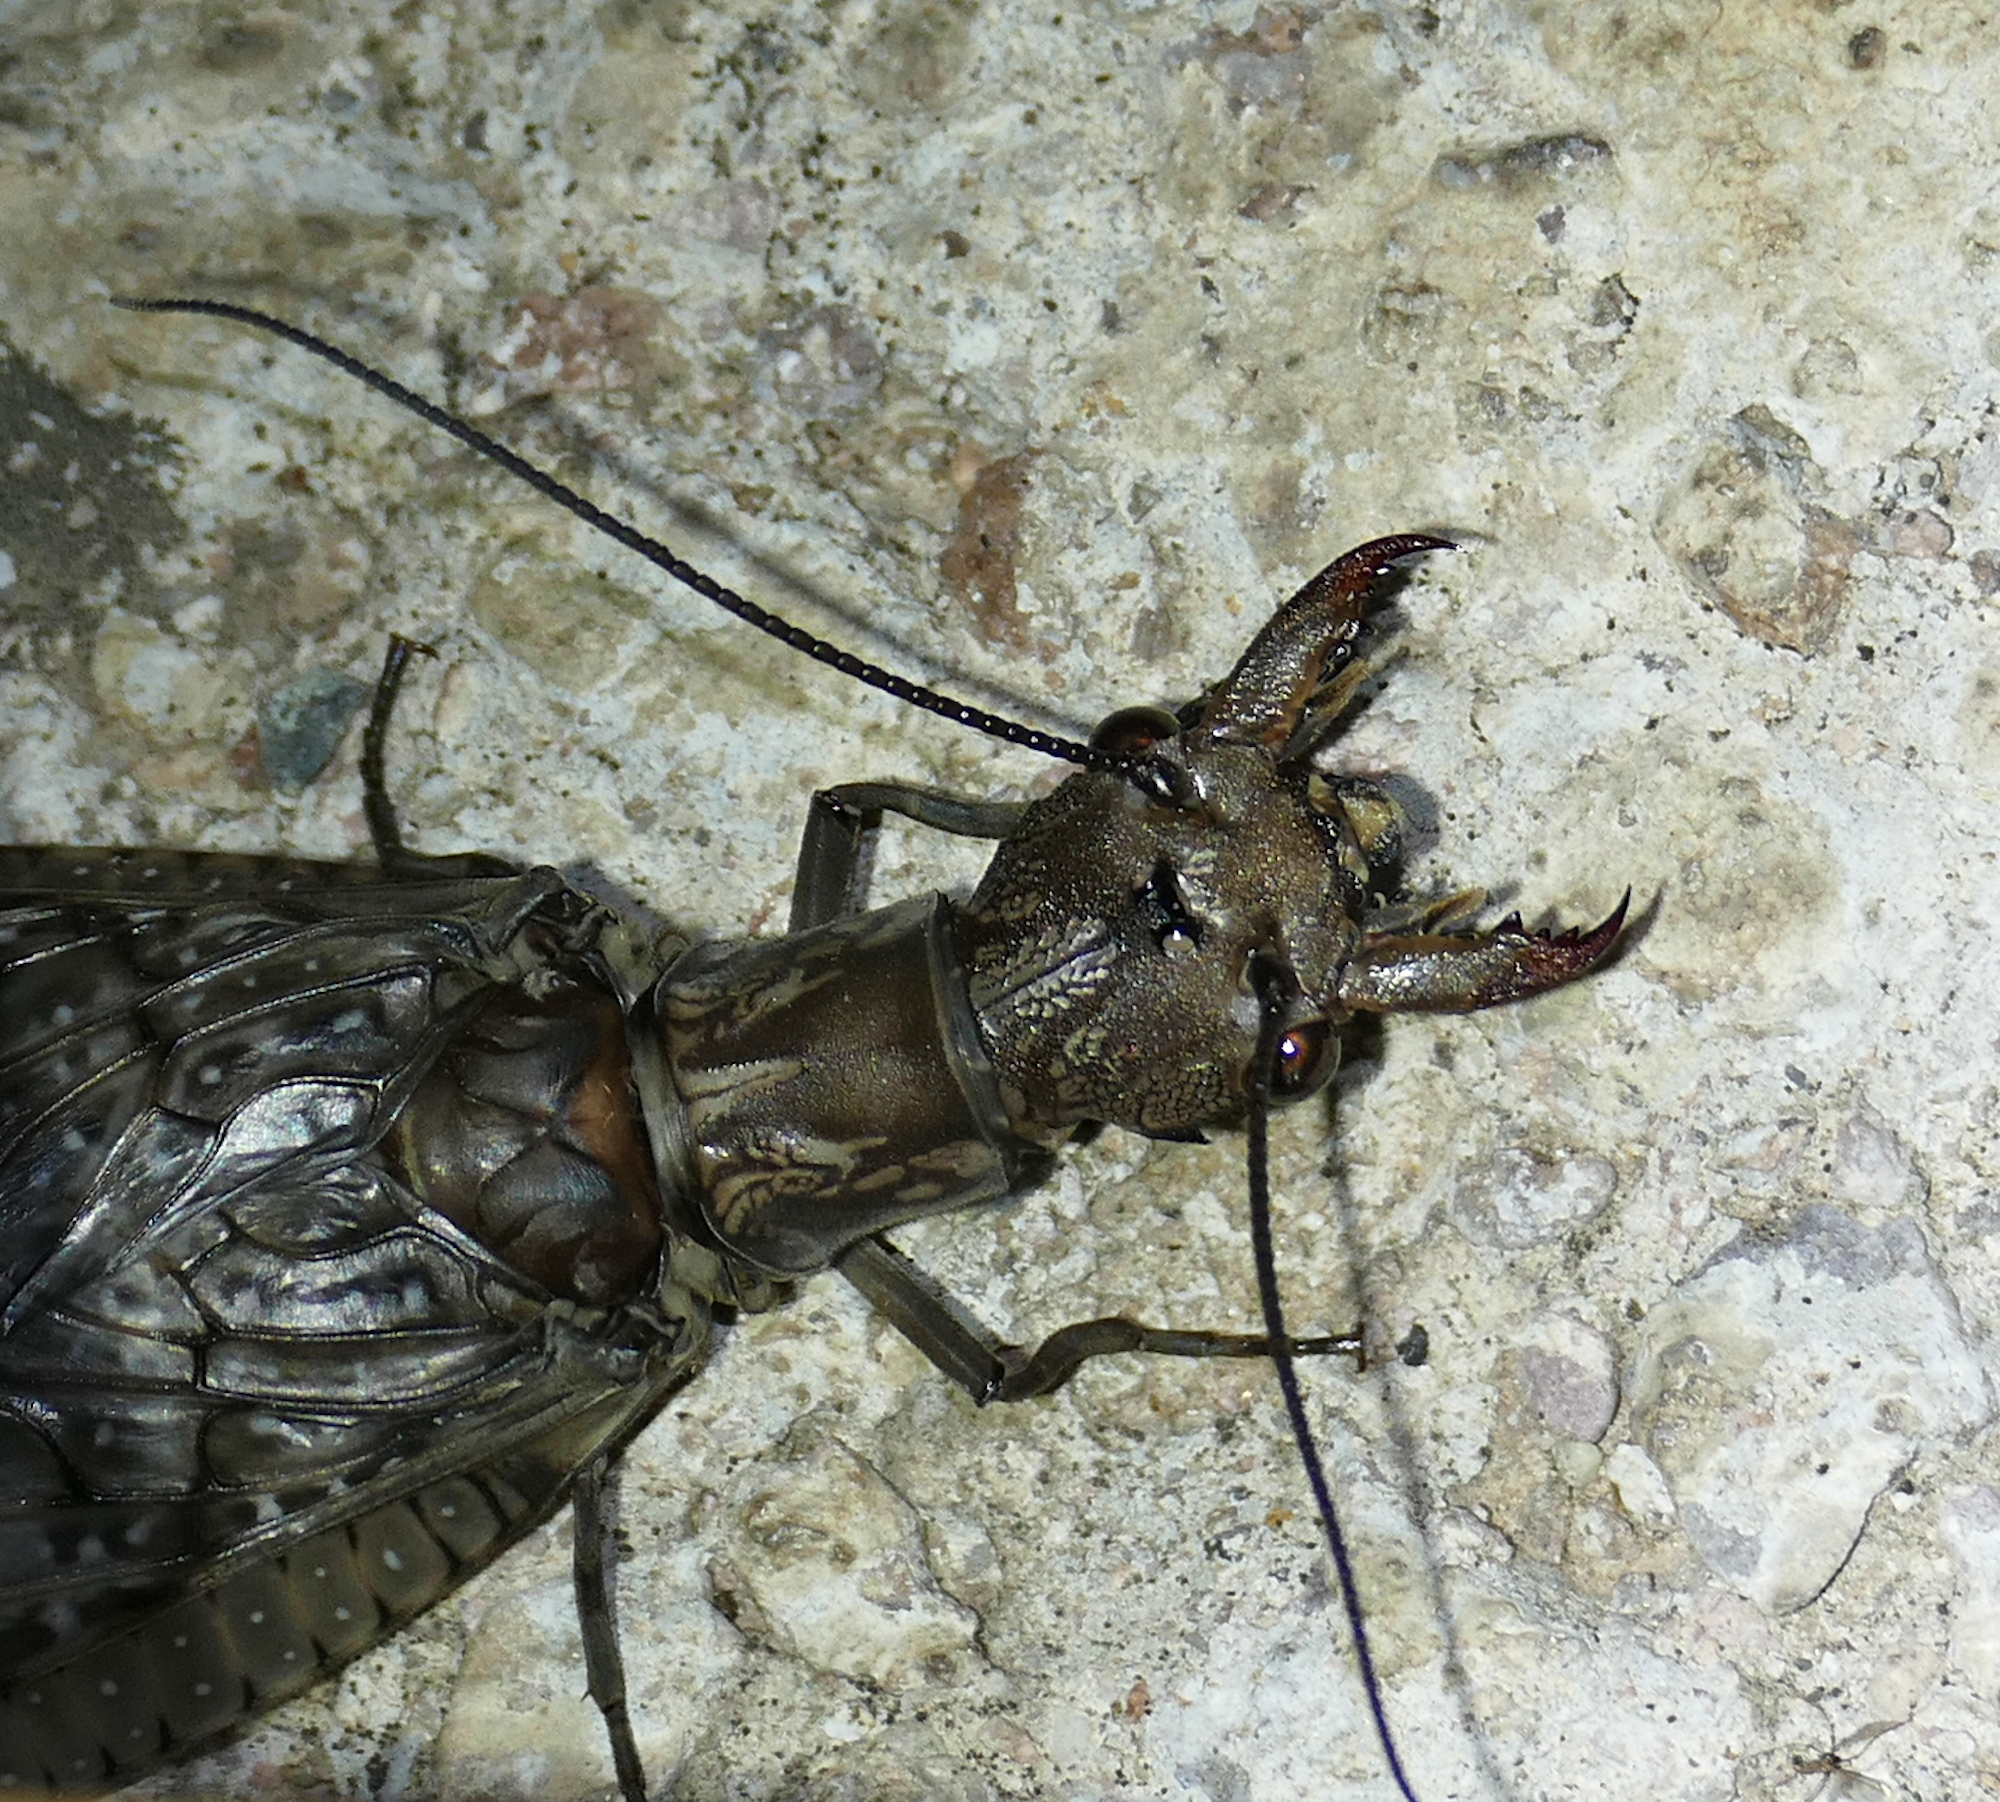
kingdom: Animalia
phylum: Arthropoda
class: Insecta
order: Megaloptera
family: Corydalidae
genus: Corydalus
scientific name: Corydalus texanus
